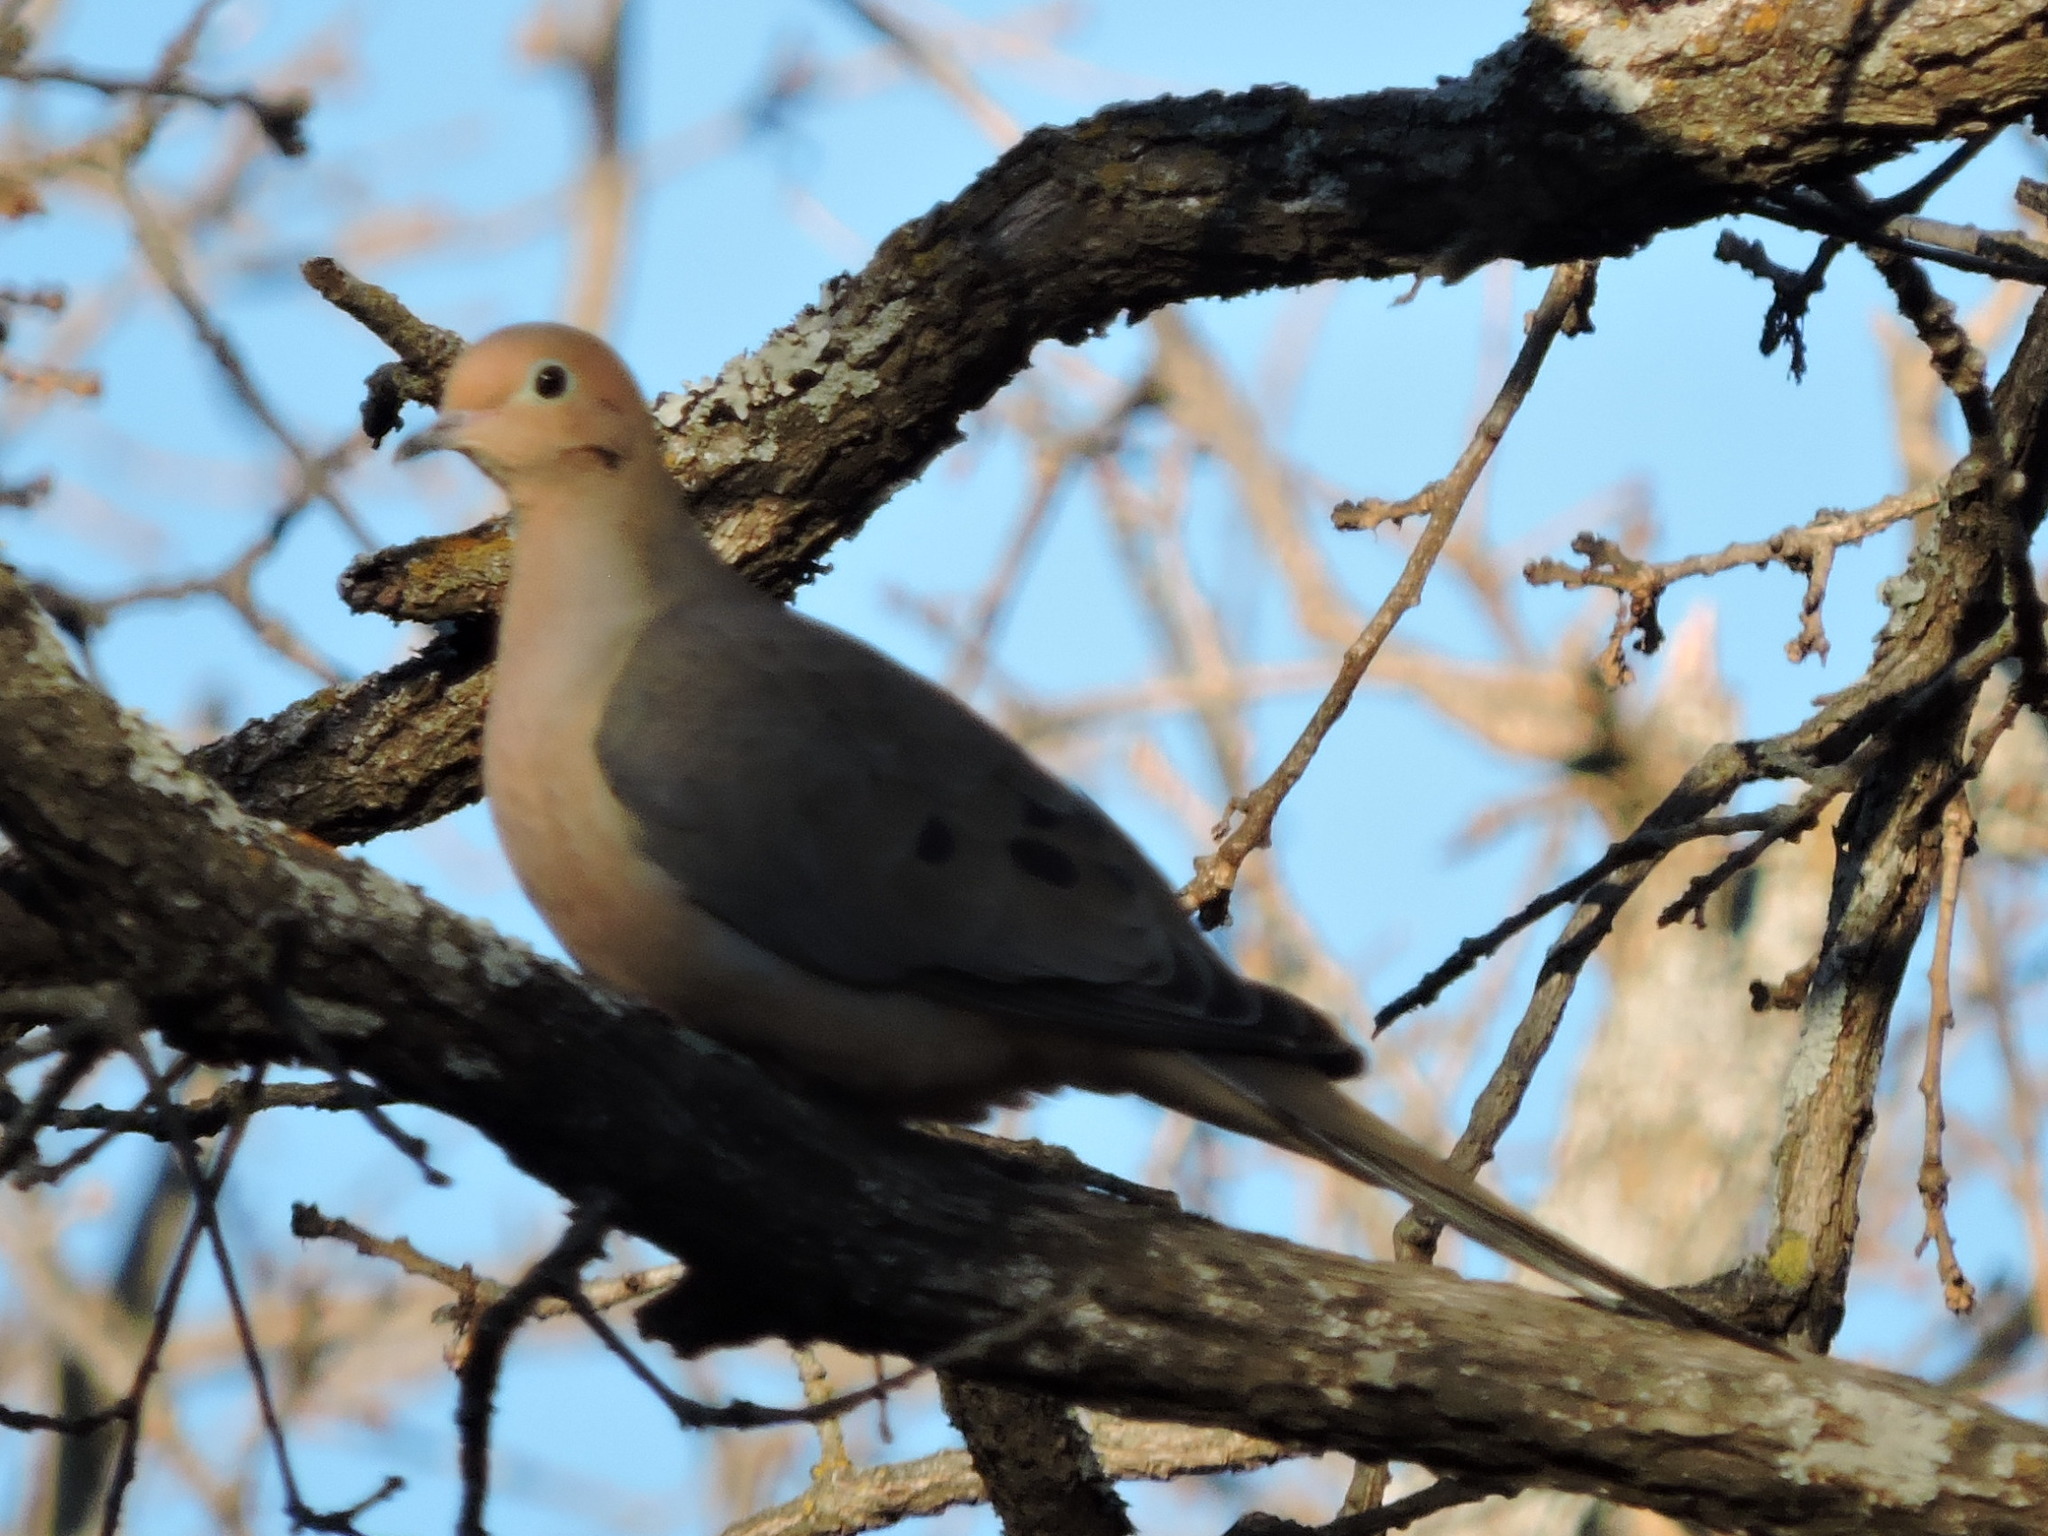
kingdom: Animalia
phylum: Chordata
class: Aves
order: Columbiformes
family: Columbidae
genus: Zenaida
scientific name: Zenaida macroura
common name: Mourning dove
